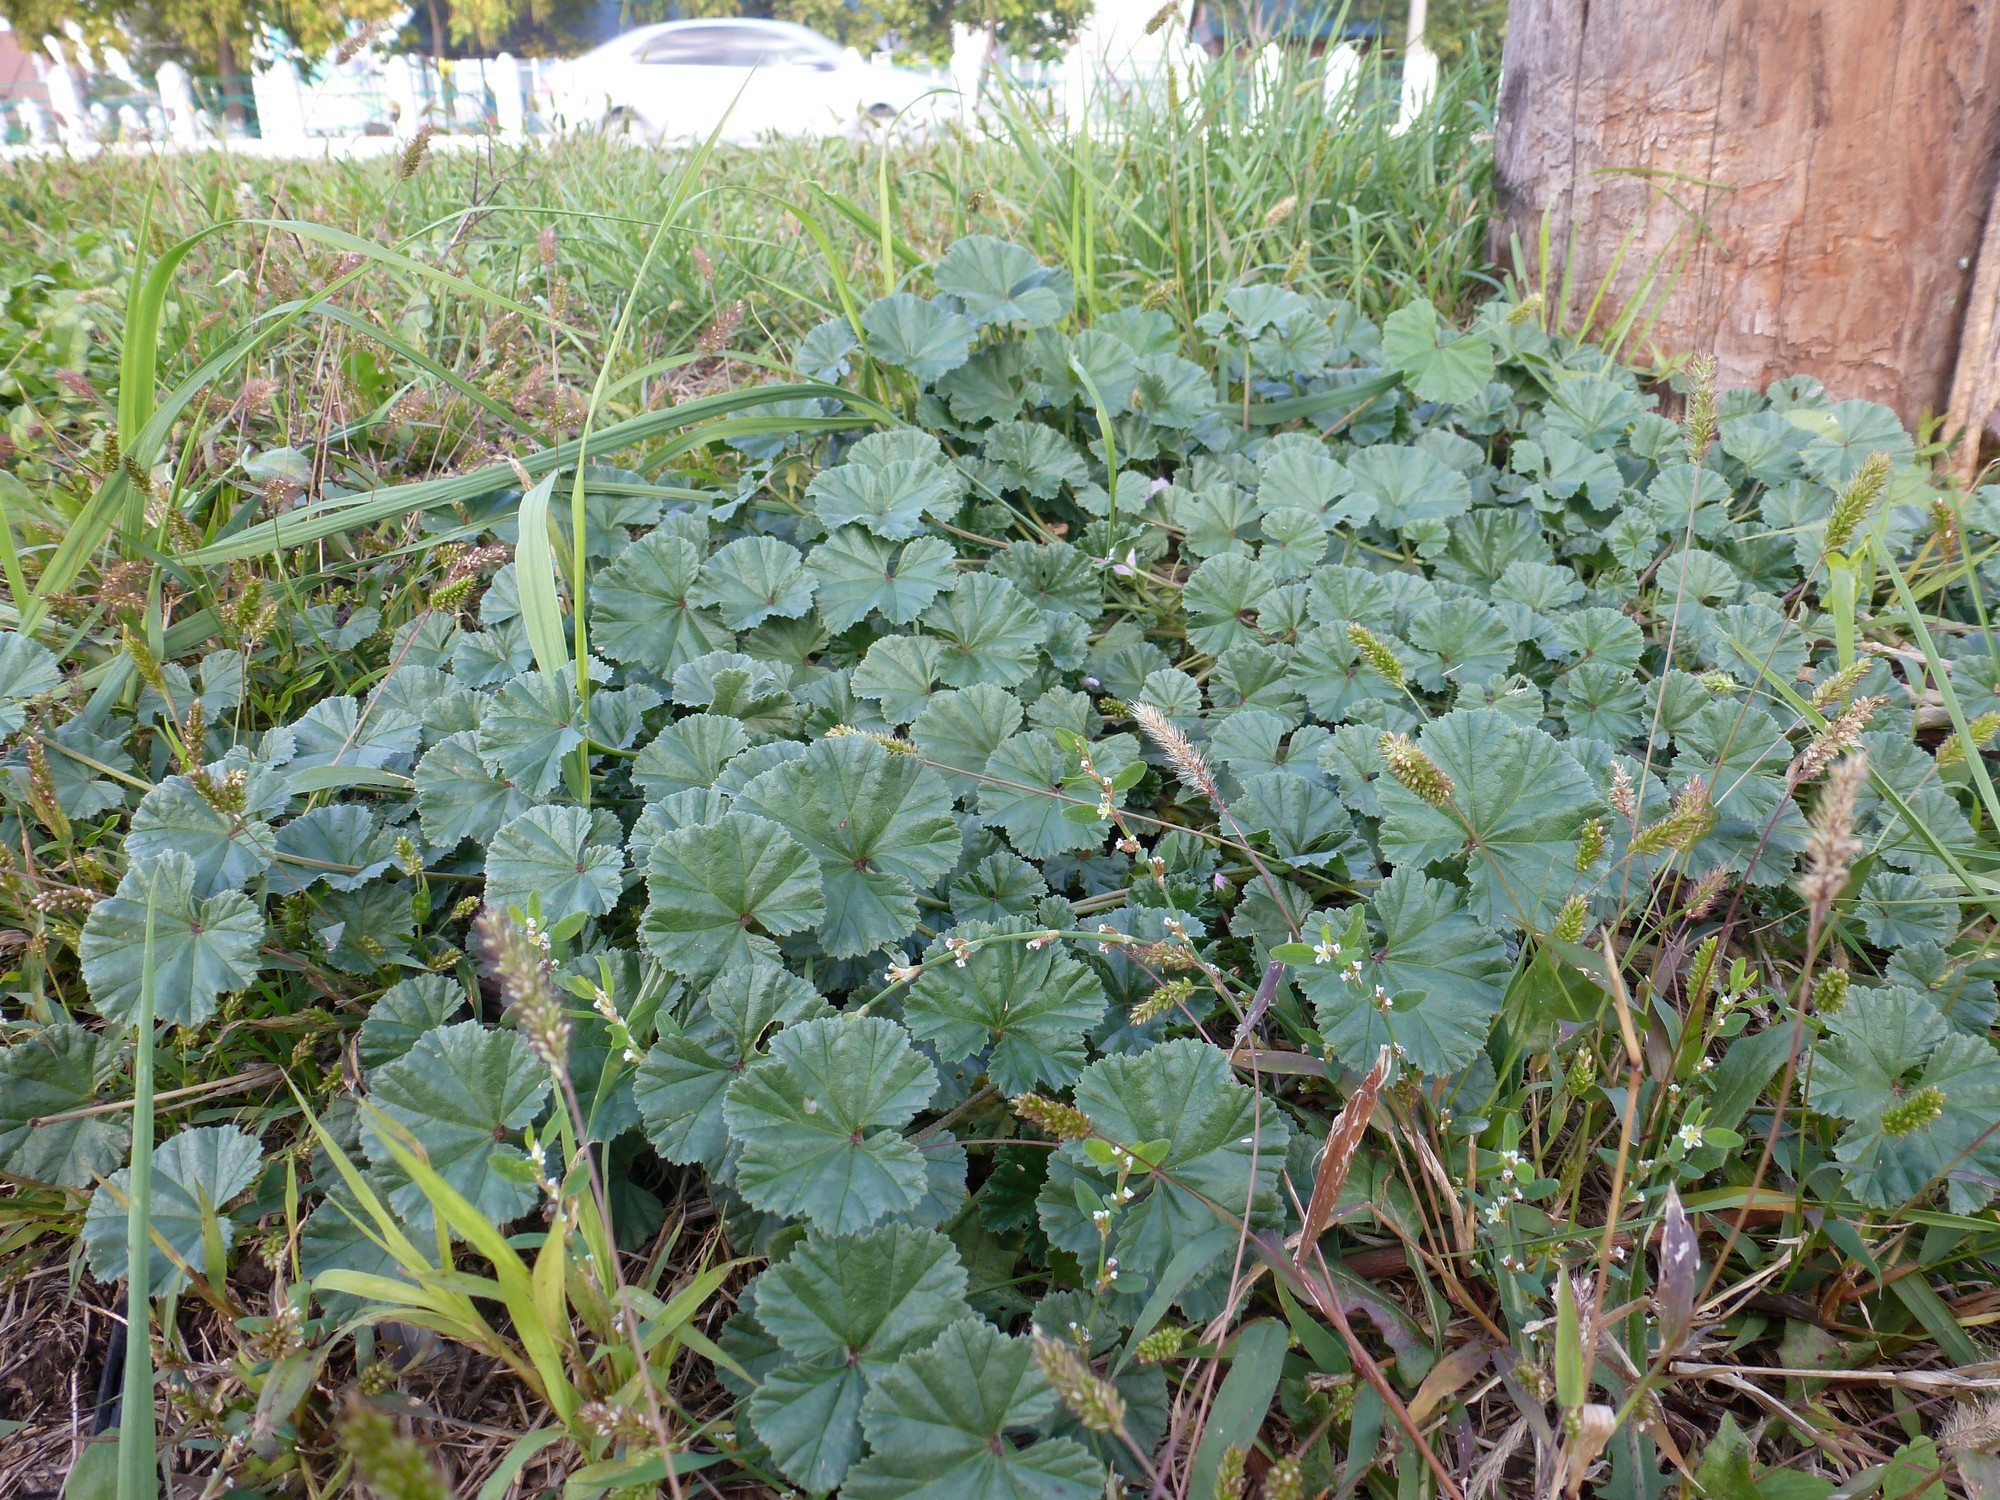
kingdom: Plantae
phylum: Tracheophyta
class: Magnoliopsida
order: Malvales
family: Malvaceae
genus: Malva
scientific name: Malva neglecta
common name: Common mallow
